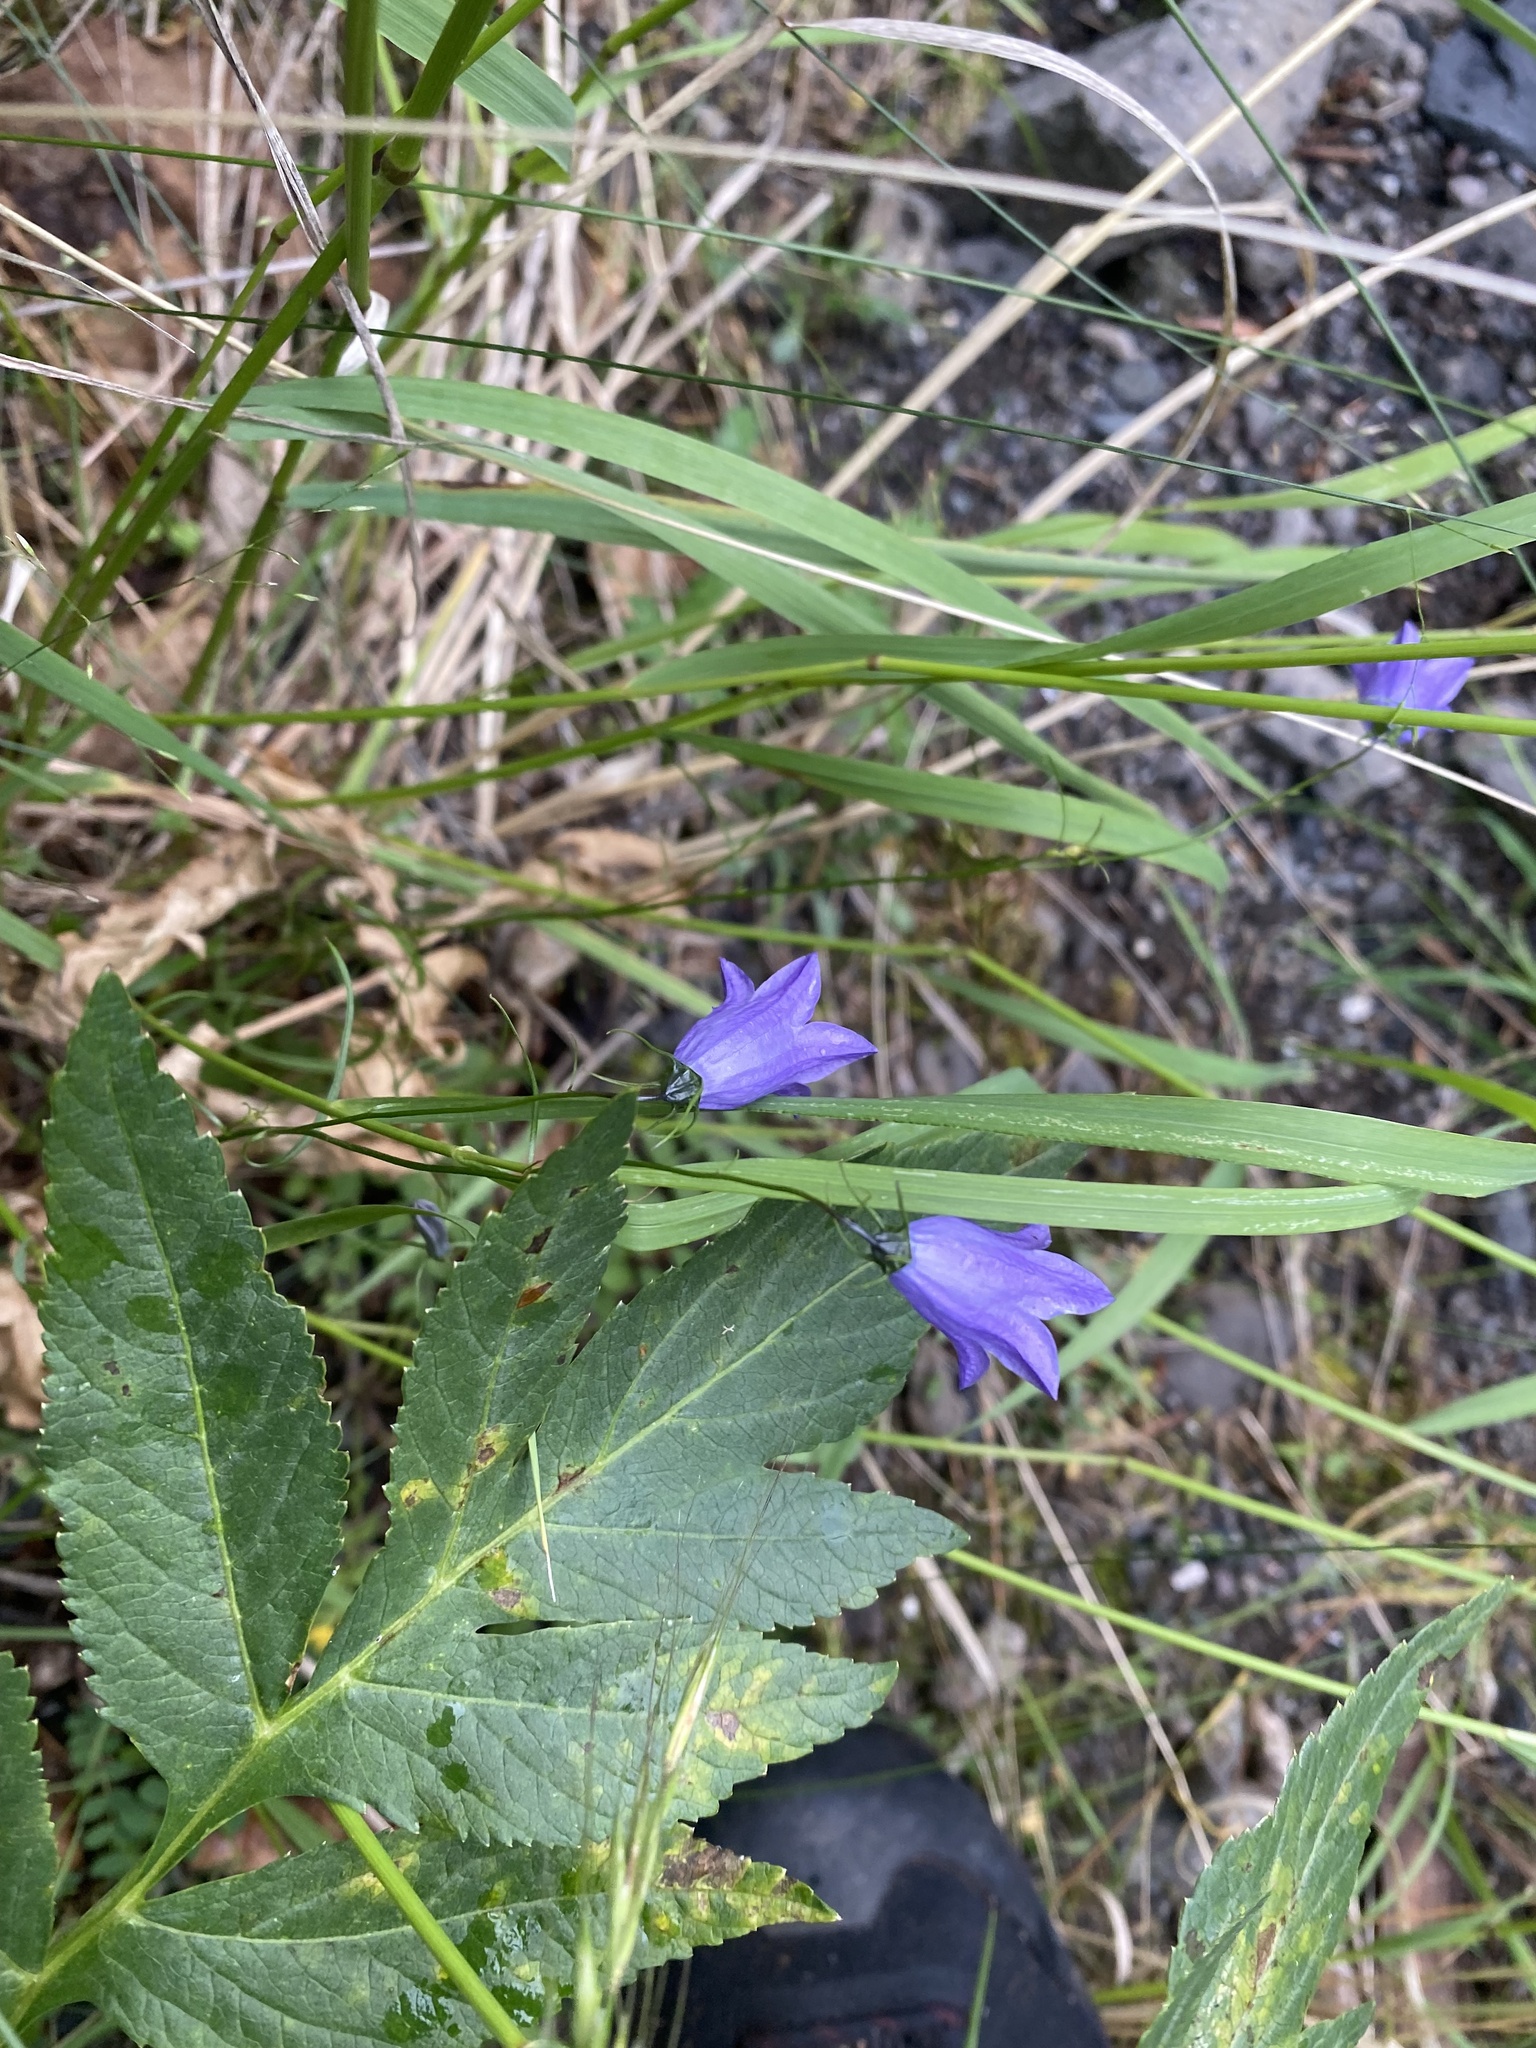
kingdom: Plantae
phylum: Tracheophyta
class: Magnoliopsida
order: Asterales
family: Campanulaceae
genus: Campanula
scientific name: Campanula rotundifolia
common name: Harebell
